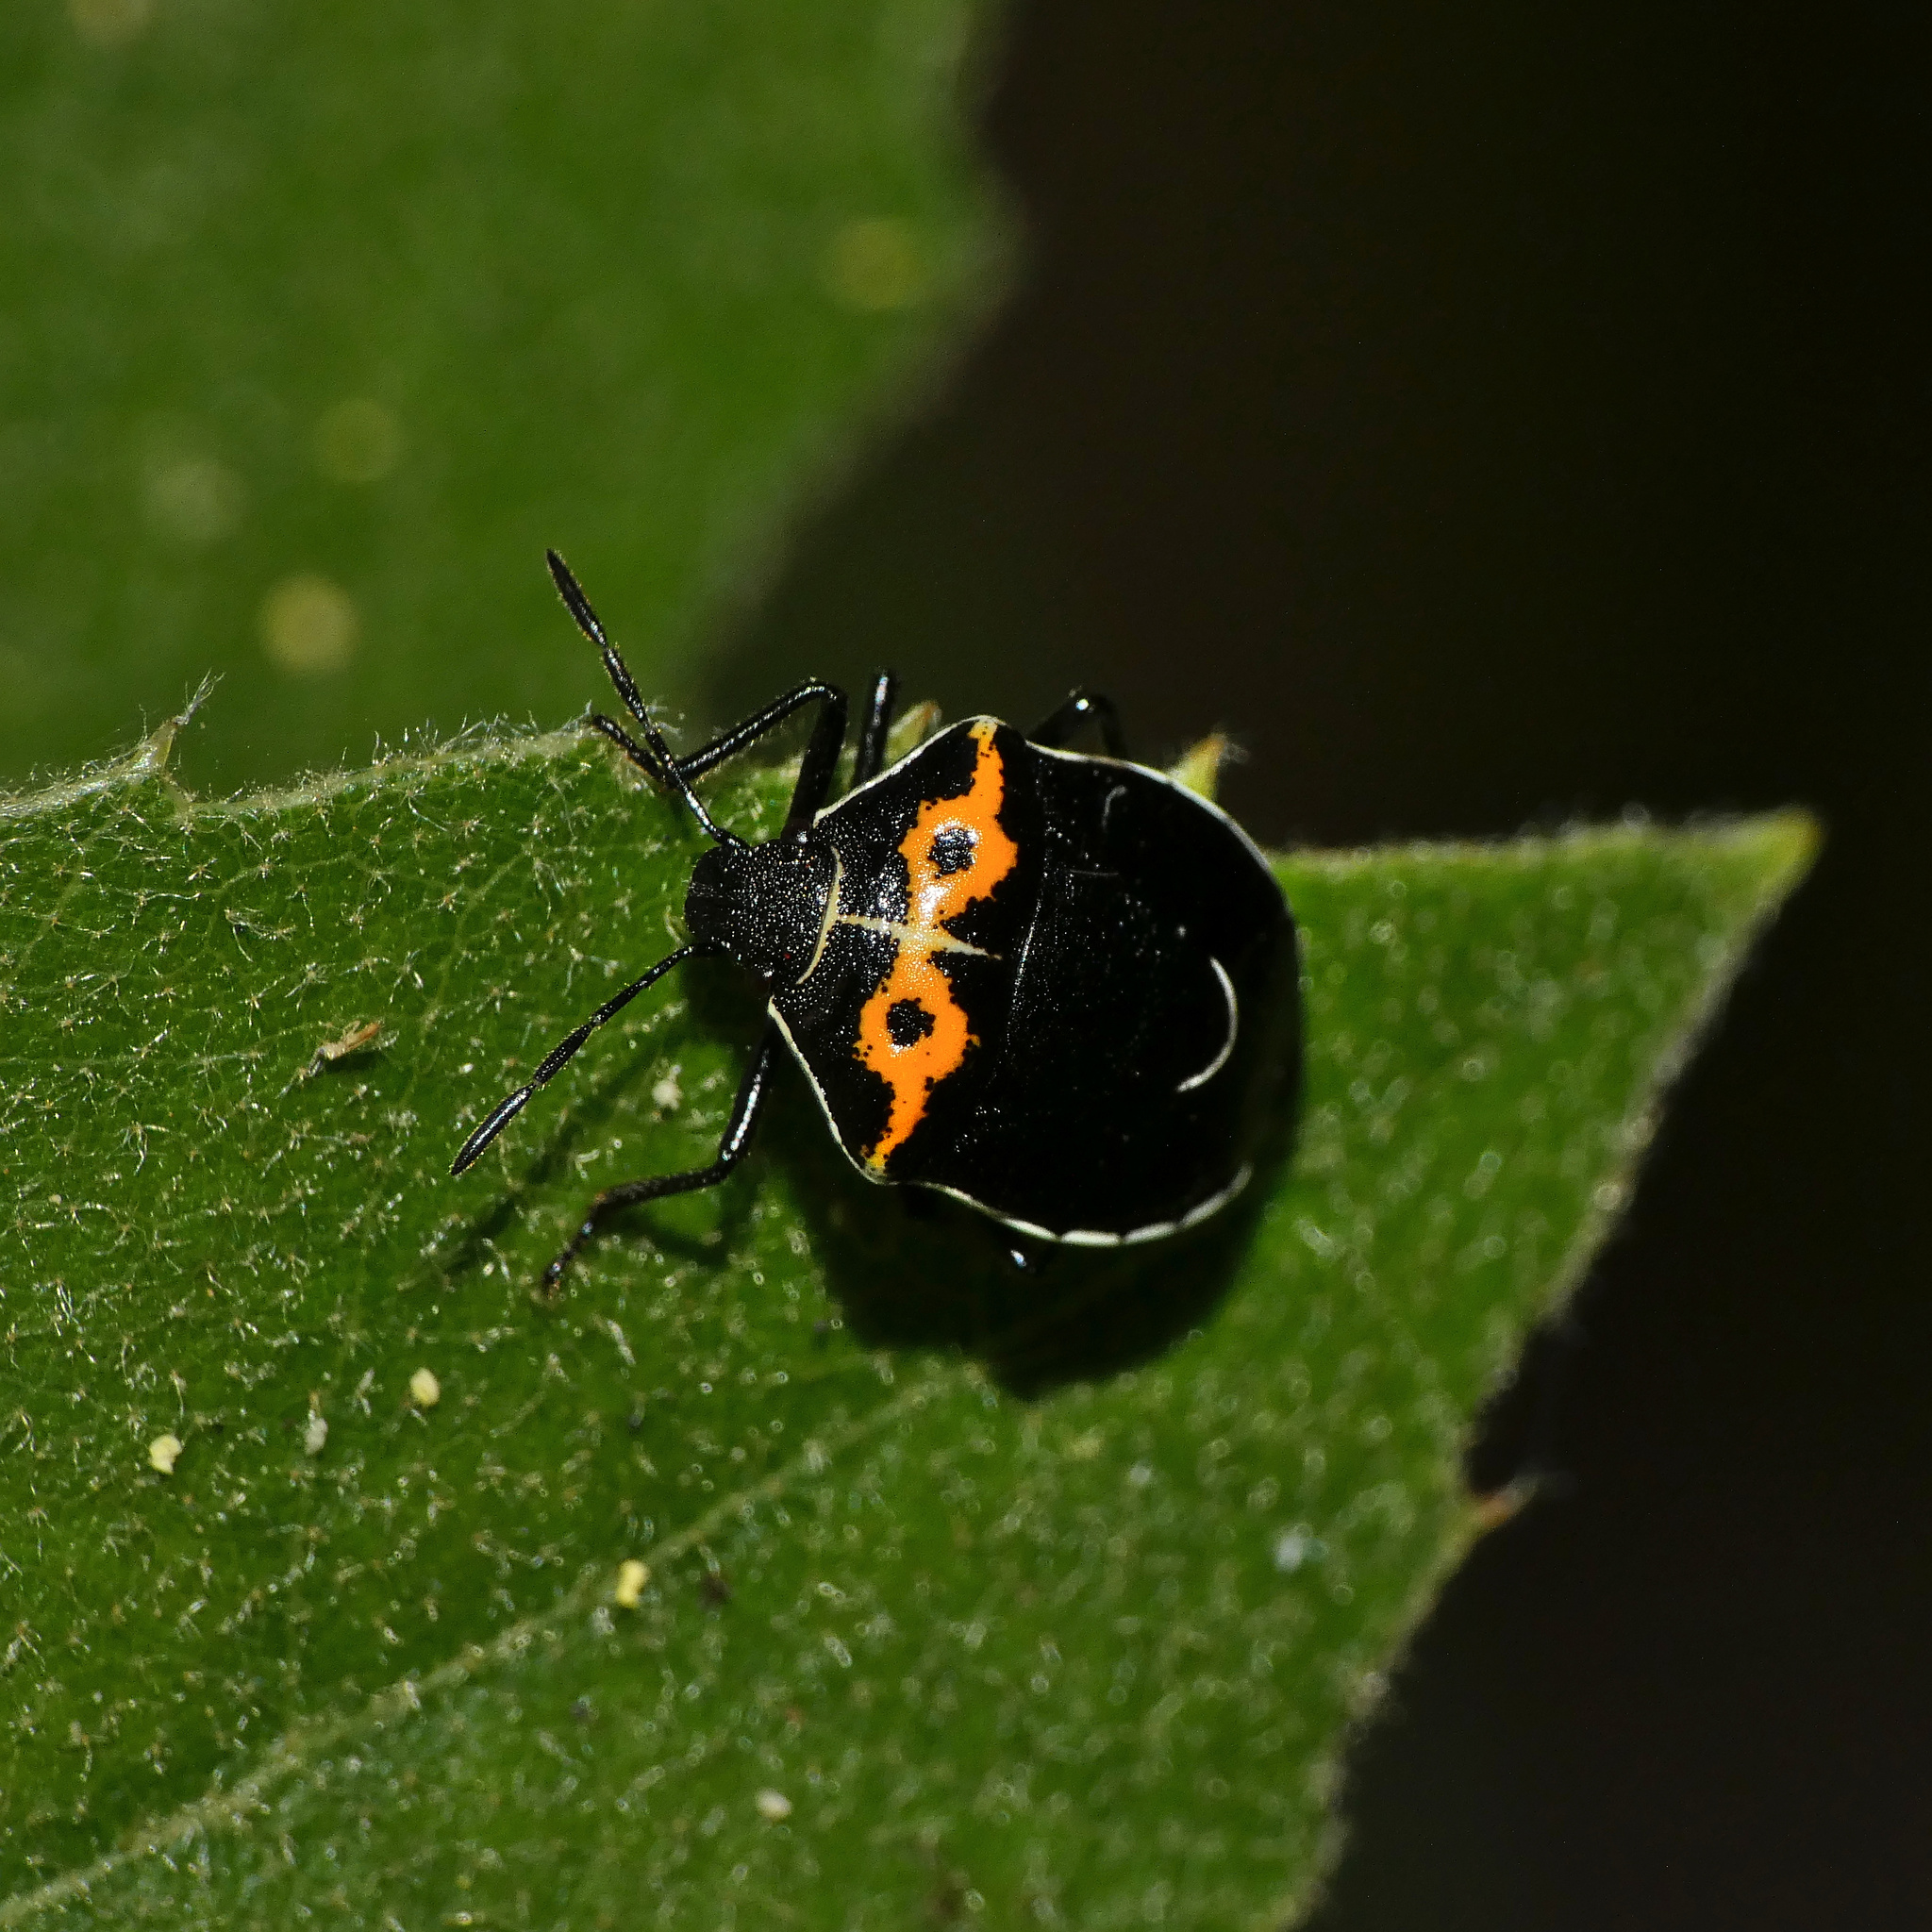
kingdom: Animalia
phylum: Arthropoda
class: Insecta
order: Hemiptera
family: Pentatomidae
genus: Cosmopepla
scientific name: Cosmopepla conspicillaris
